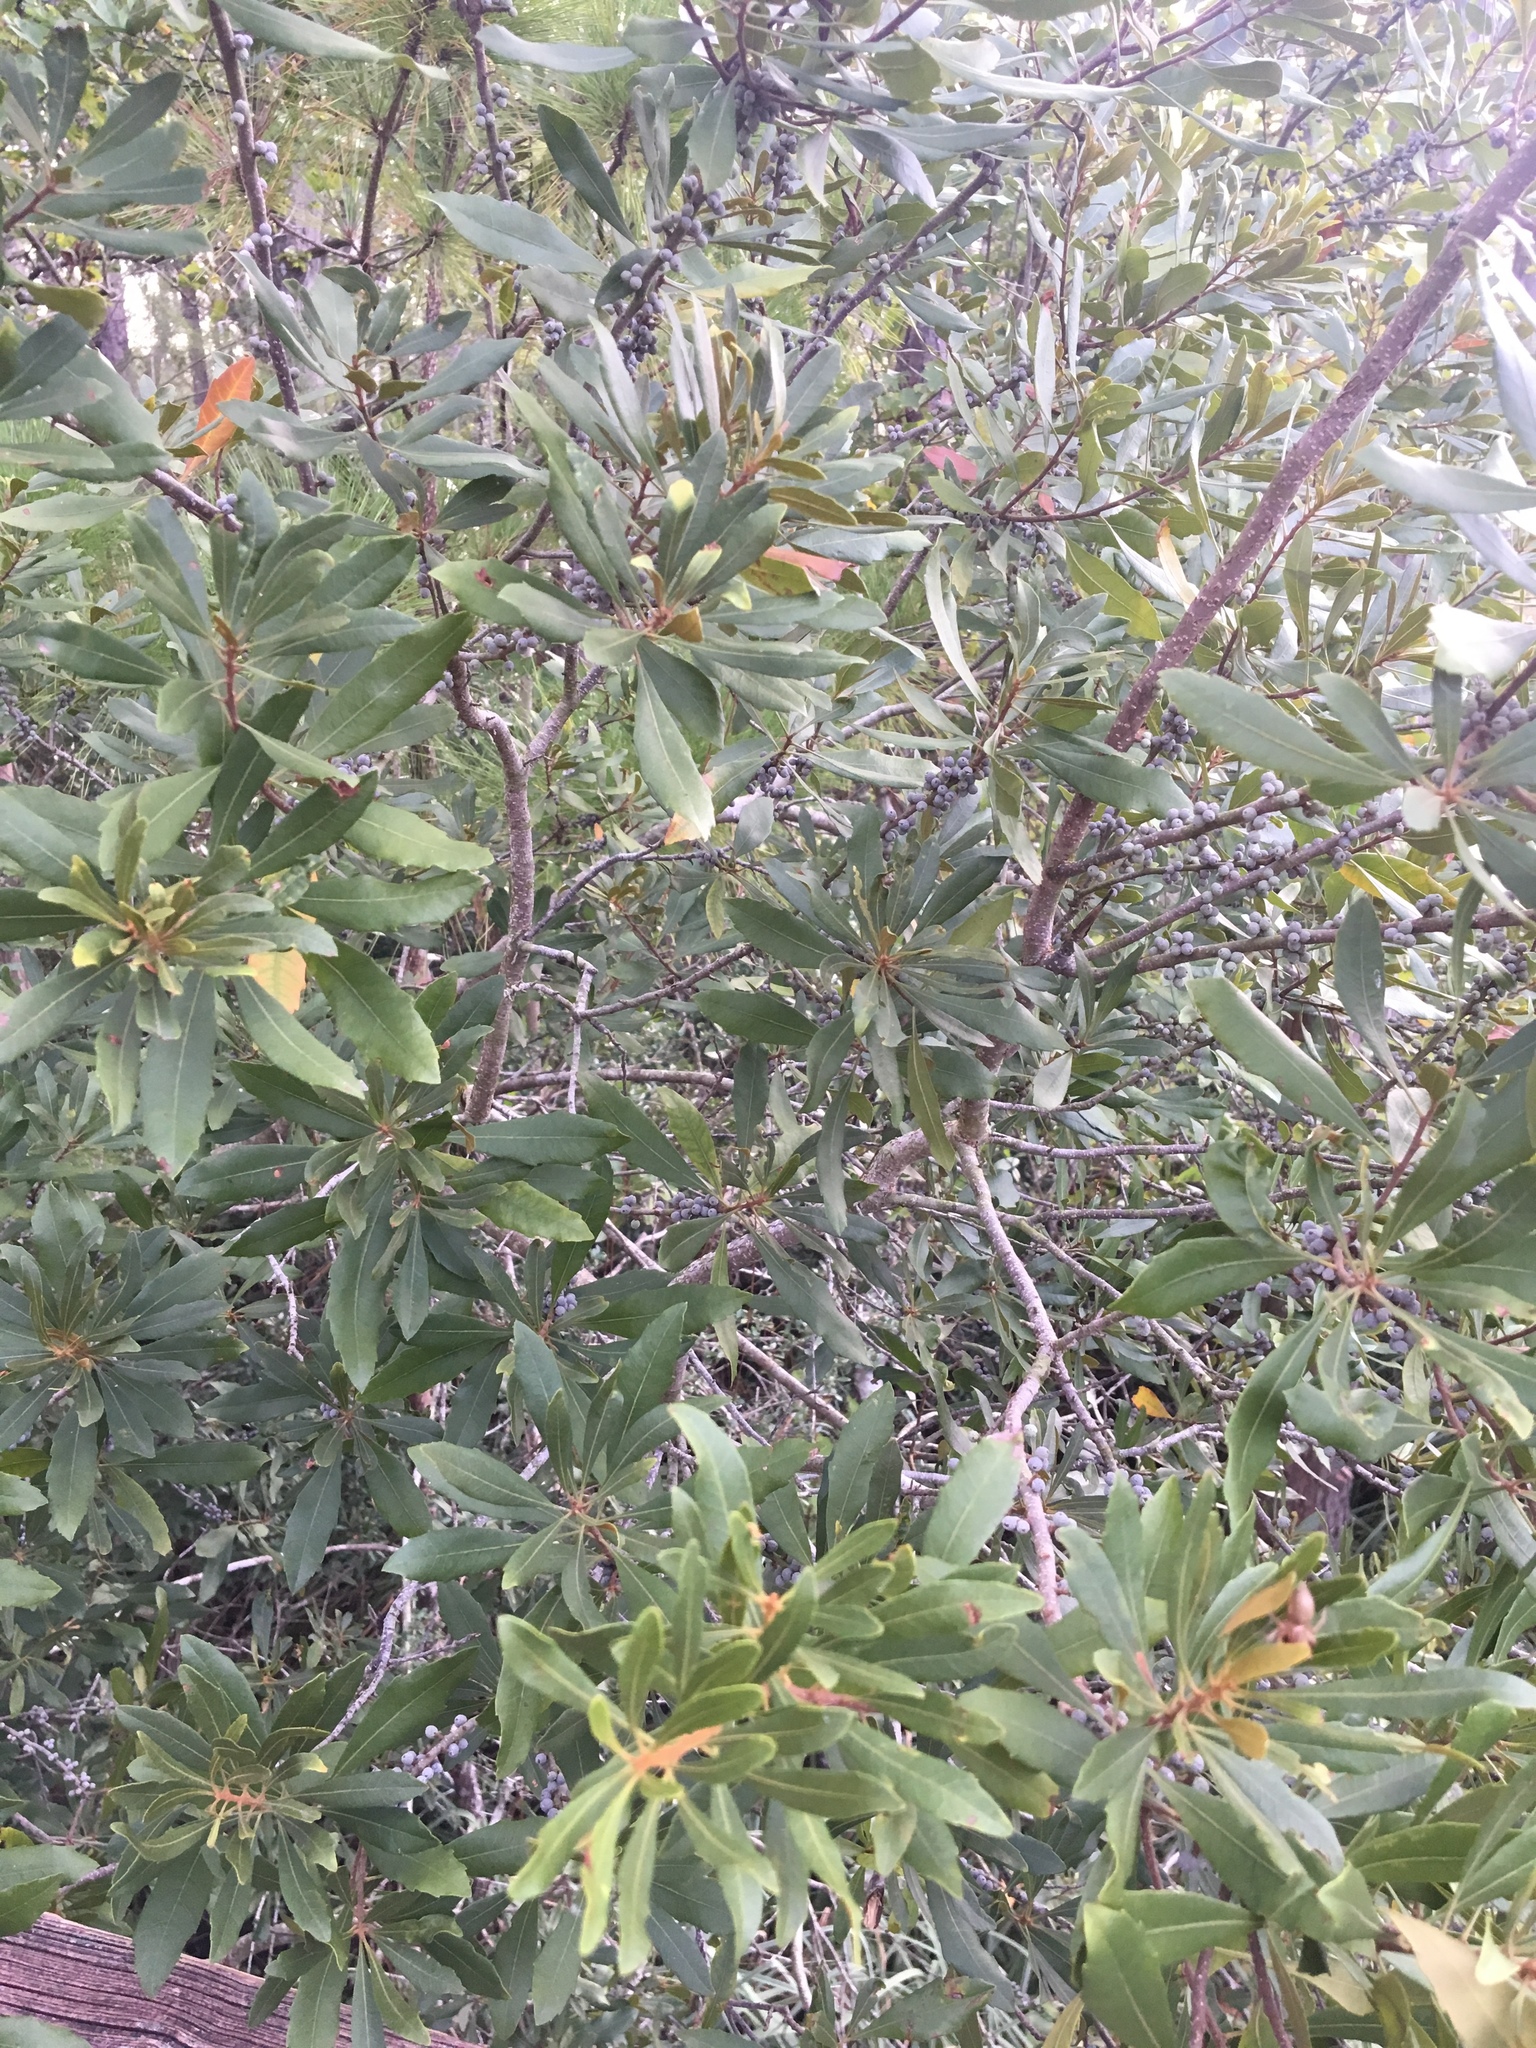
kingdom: Plantae
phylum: Tracheophyta
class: Magnoliopsida
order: Fagales
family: Myricaceae
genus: Morella
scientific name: Morella cerifera
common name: Wax myrtle
